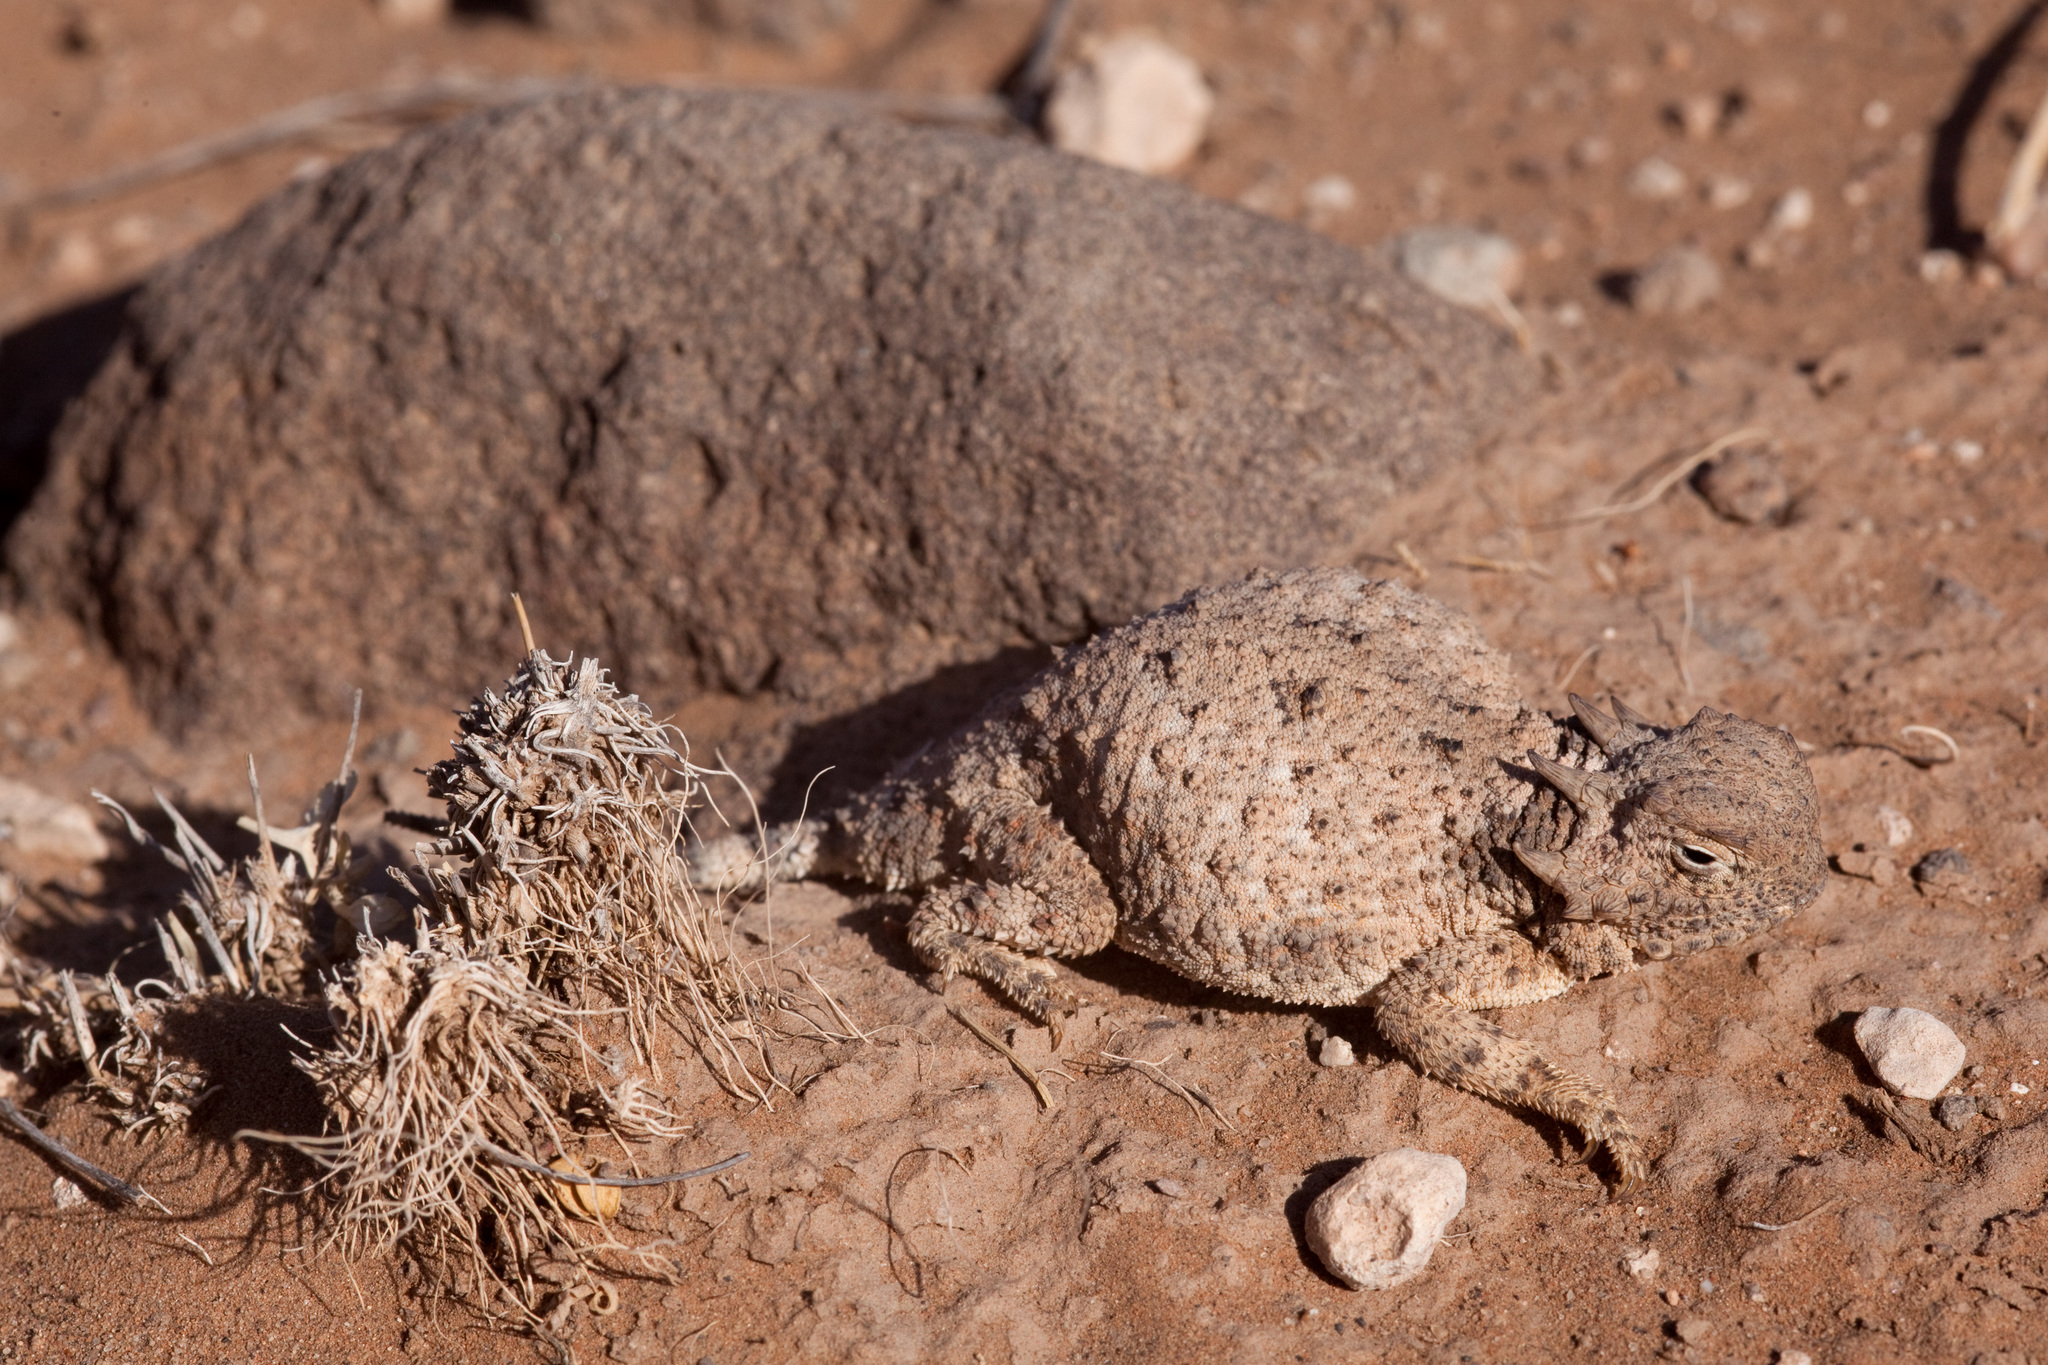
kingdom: Animalia
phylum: Chordata
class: Squamata
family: Phrynosomatidae
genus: Phrynosoma
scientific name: Phrynosoma modestum
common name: Roundtail horned lizard
